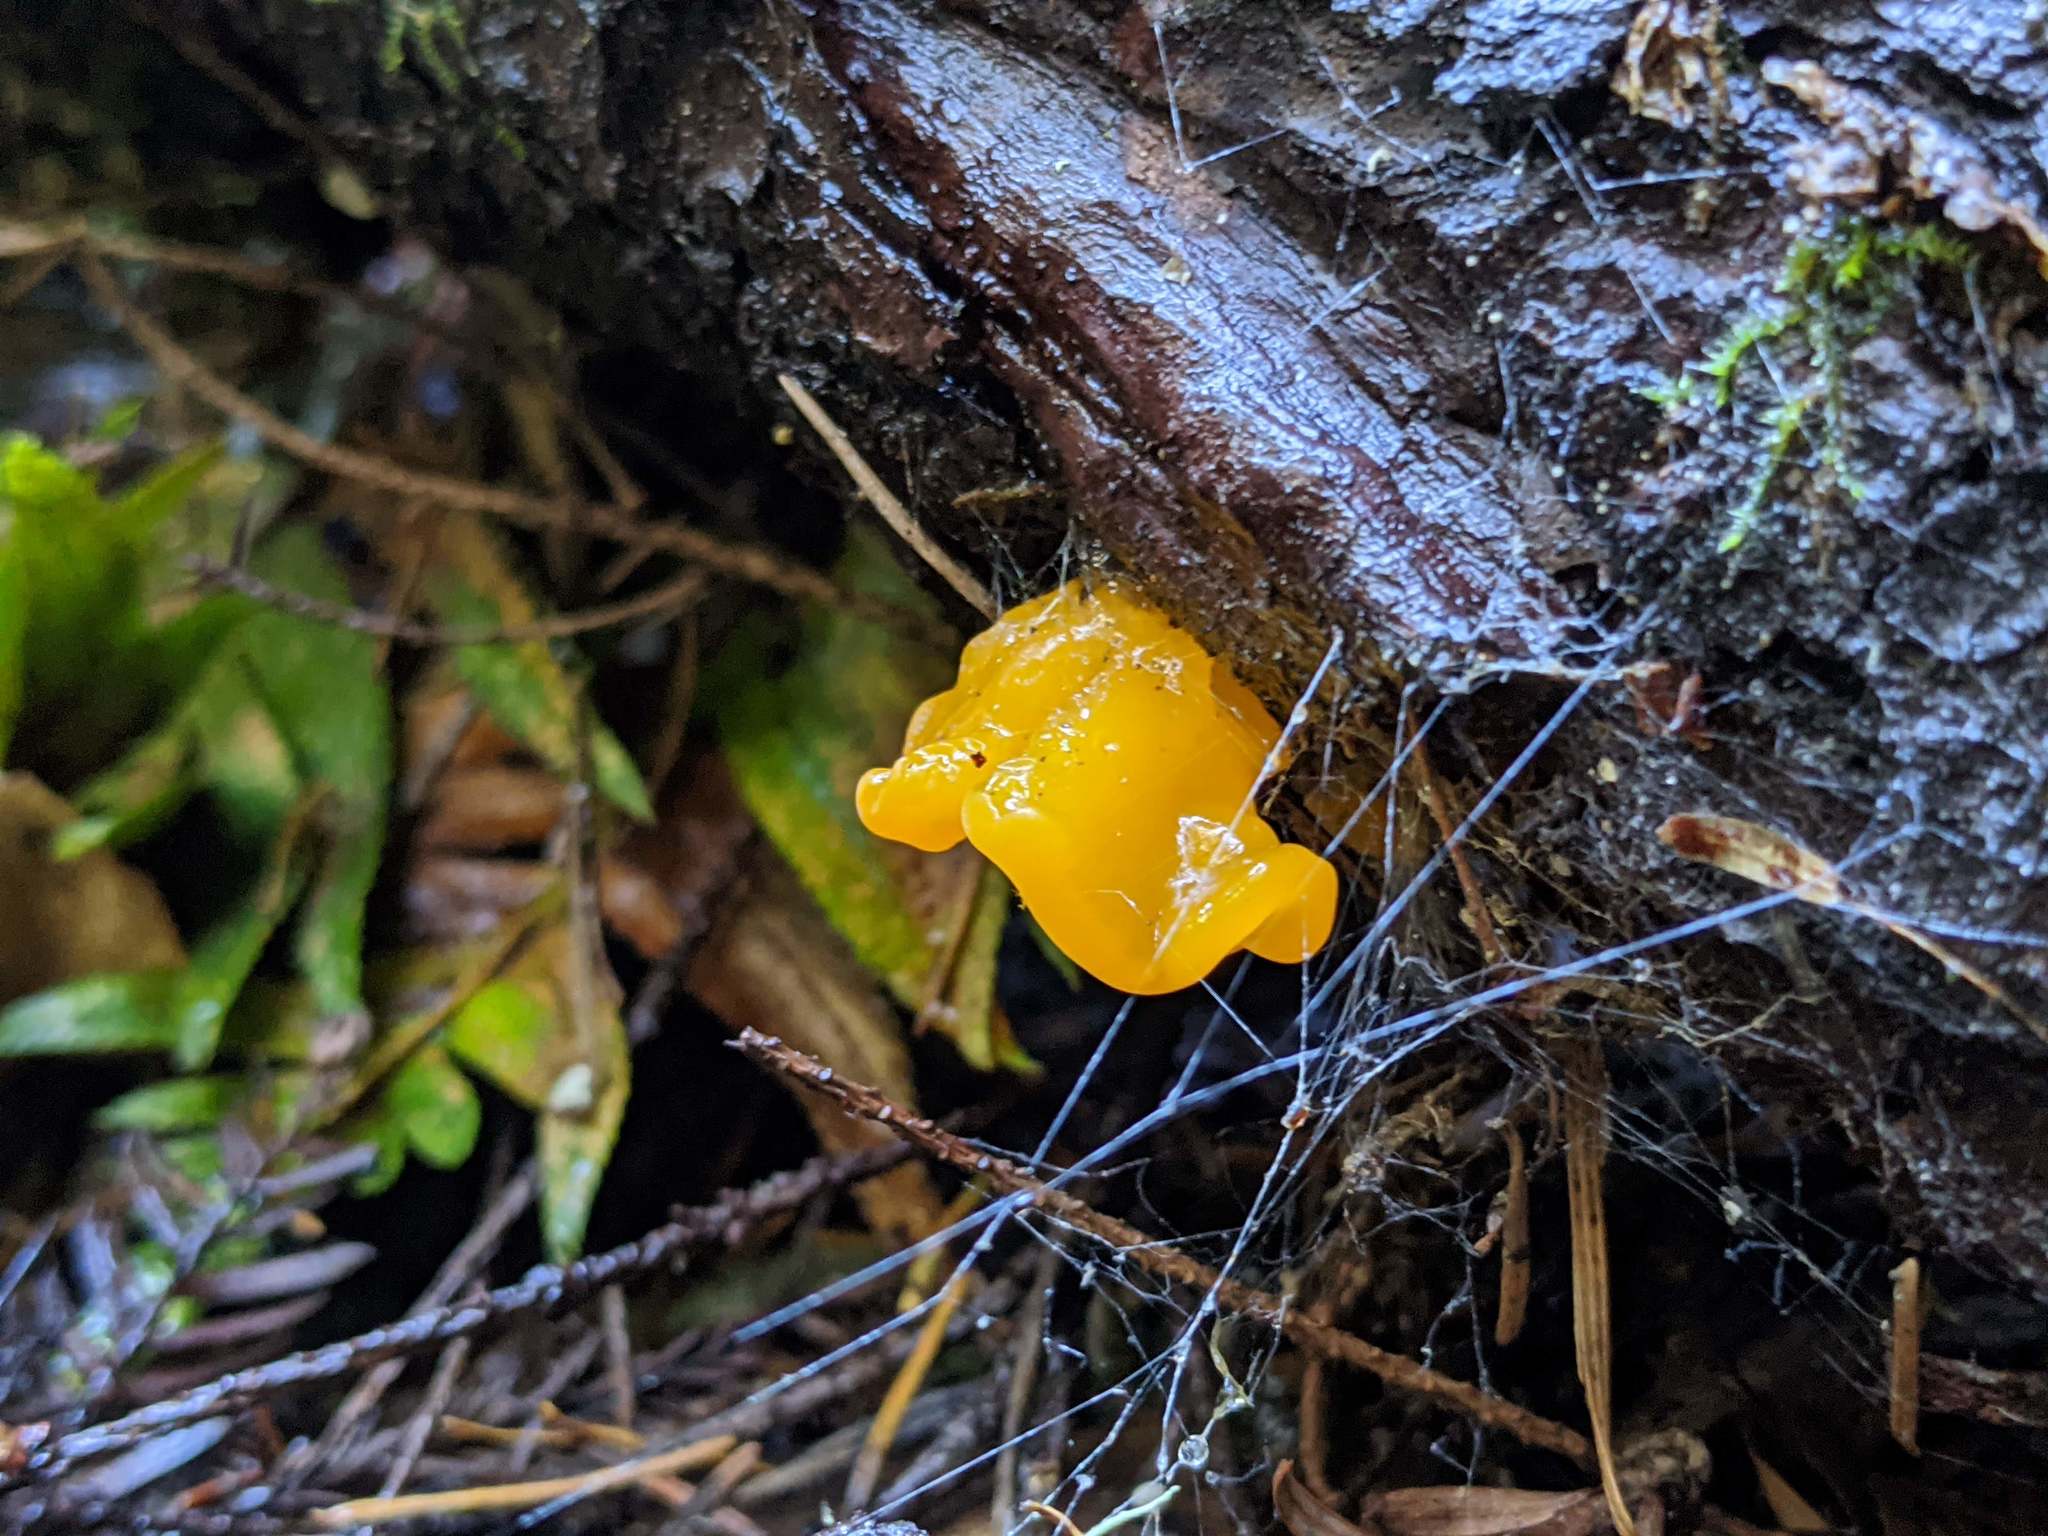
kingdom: Fungi
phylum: Basidiomycota
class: Dacrymycetes
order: Dacrymycetales
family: Dacrymycetaceae
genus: Dacrymyces
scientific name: Dacrymyces chrysospermus
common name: Orange jelly spot
